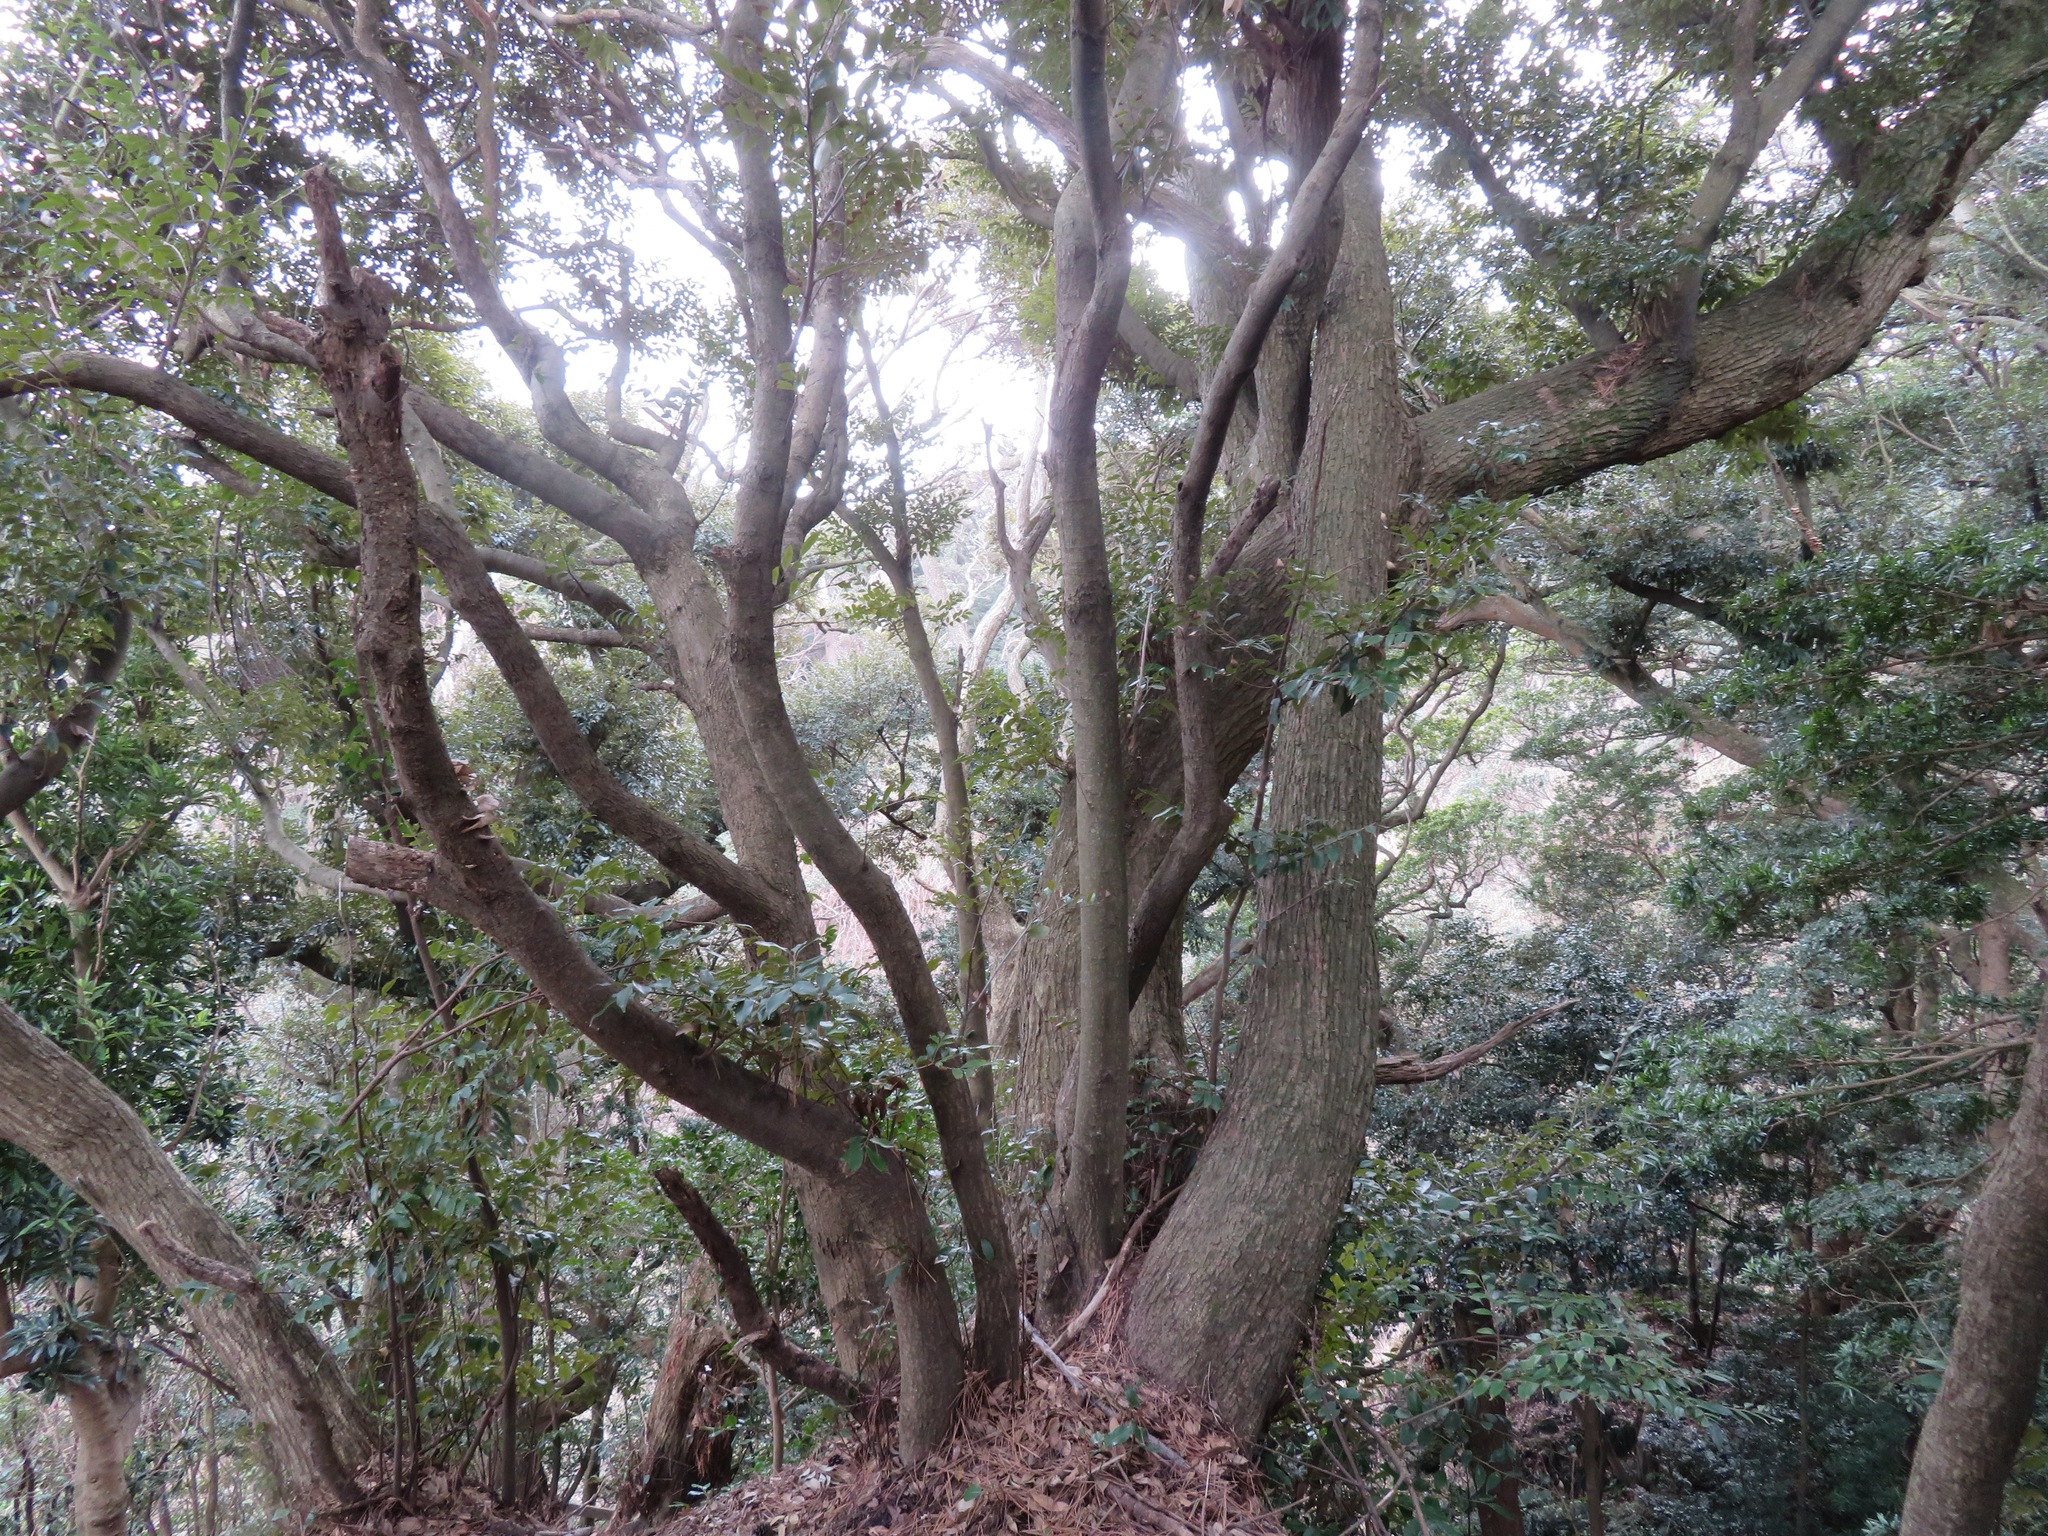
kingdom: Plantae
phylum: Tracheophyta
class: Magnoliopsida
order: Fagales
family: Fagaceae
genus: Castanopsis
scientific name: Castanopsis sieboldii
